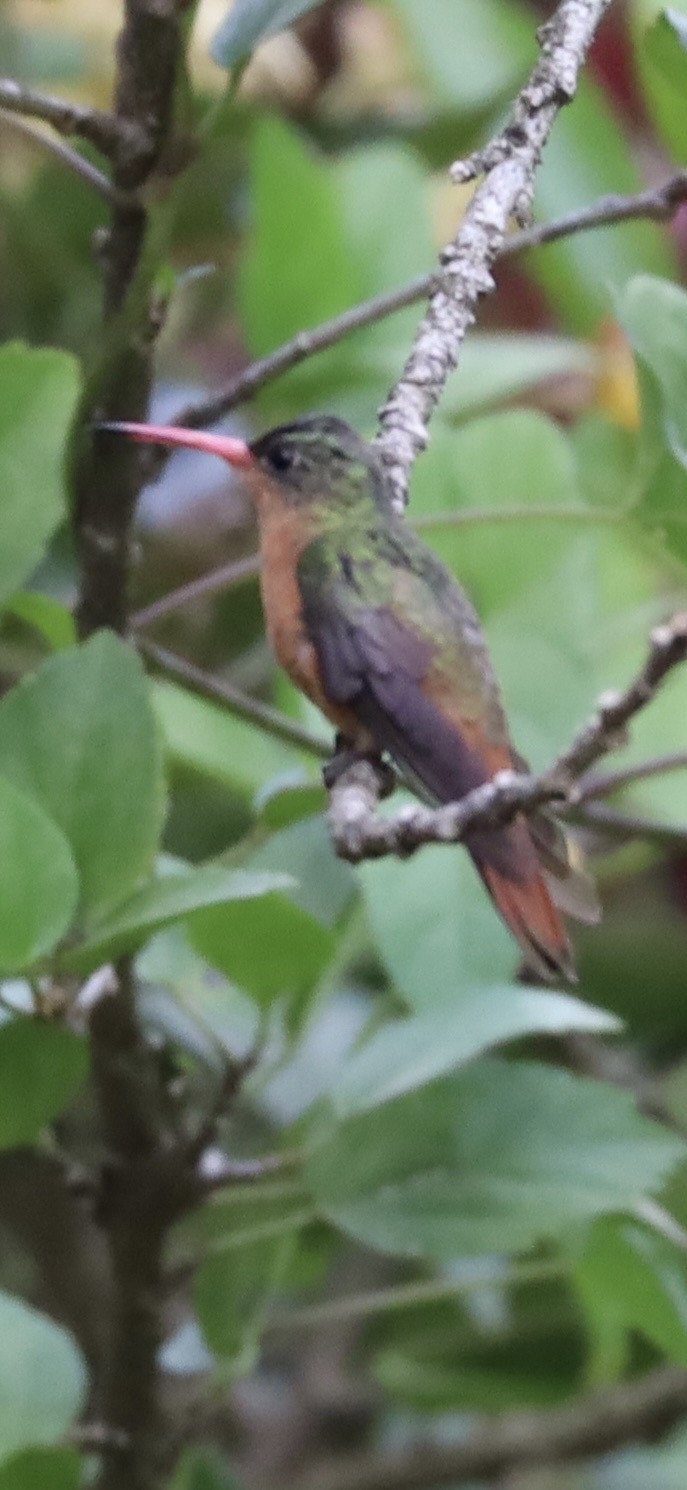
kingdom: Animalia
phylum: Chordata
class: Aves
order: Apodiformes
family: Trochilidae
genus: Amazilia
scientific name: Amazilia rutila
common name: Cinnamon hummingbird
